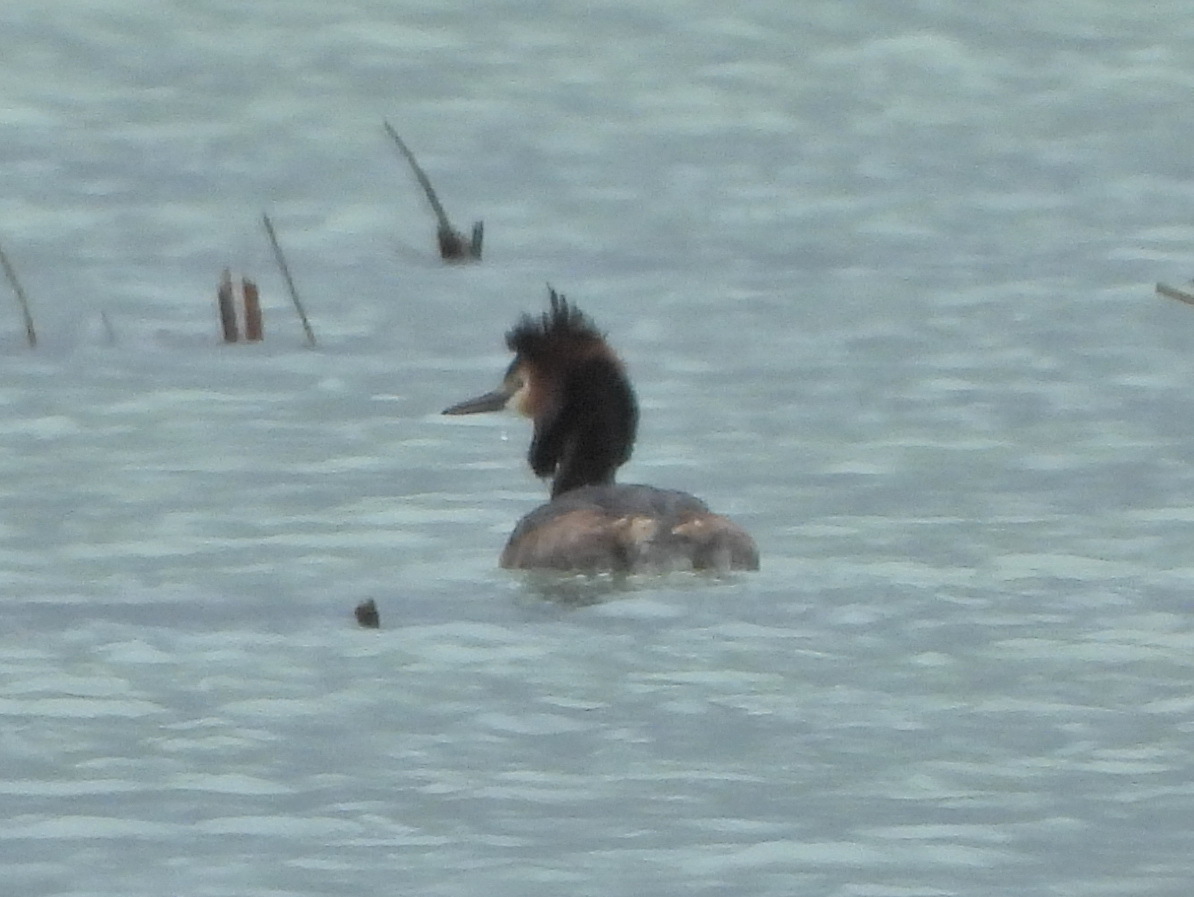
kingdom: Animalia
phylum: Chordata
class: Aves
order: Podicipediformes
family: Podicipedidae
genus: Podiceps
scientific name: Podiceps cristatus
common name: Great crested grebe
